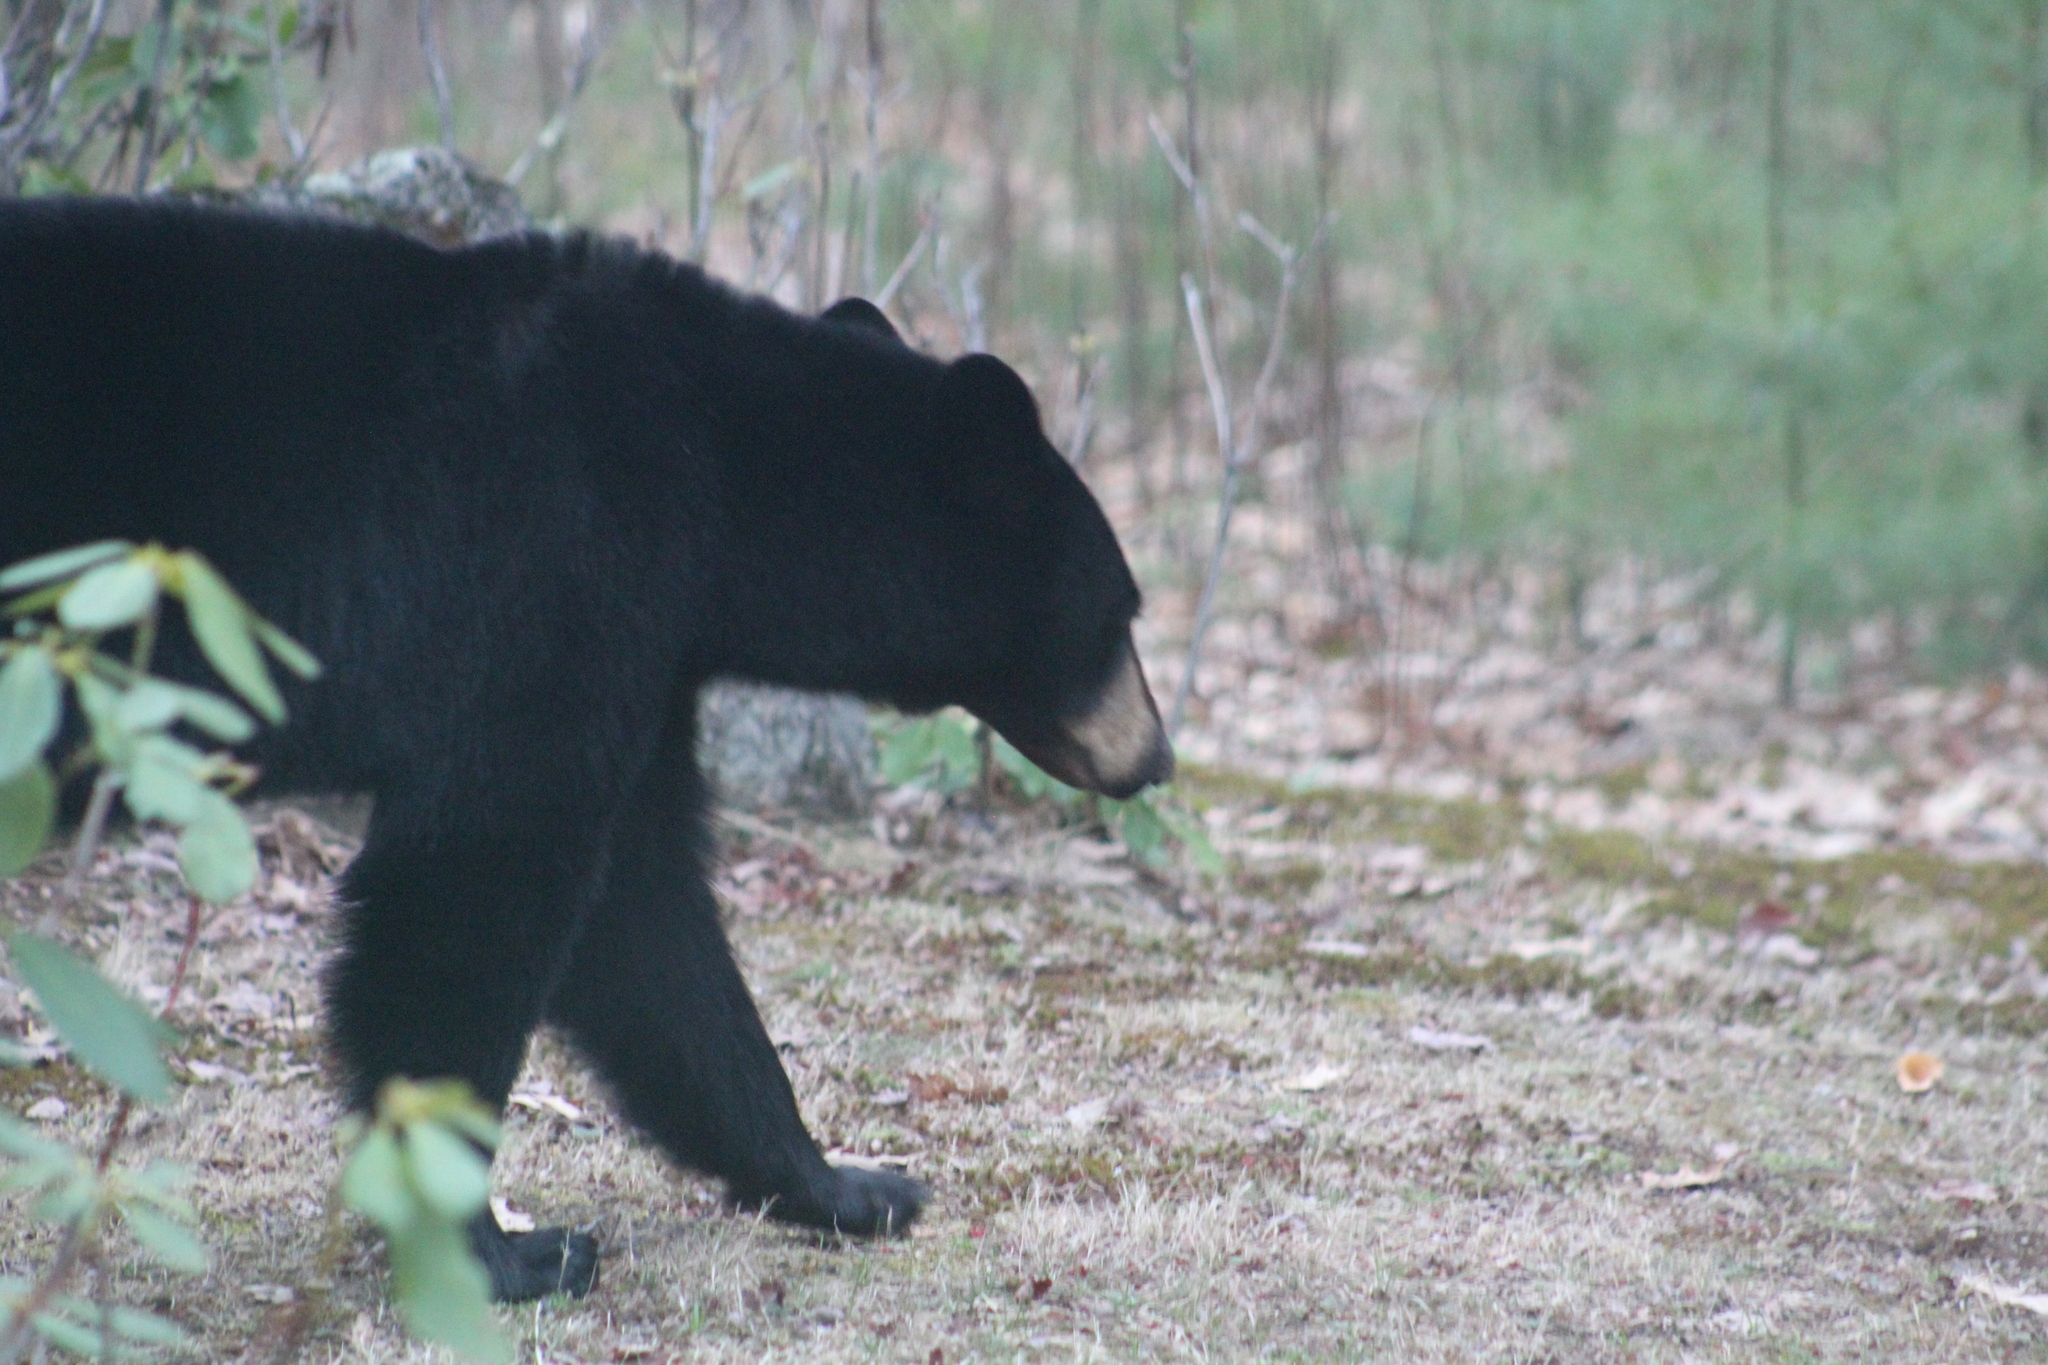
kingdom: Animalia
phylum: Chordata
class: Mammalia
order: Carnivora
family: Ursidae
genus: Ursus
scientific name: Ursus americanus
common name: American black bear
